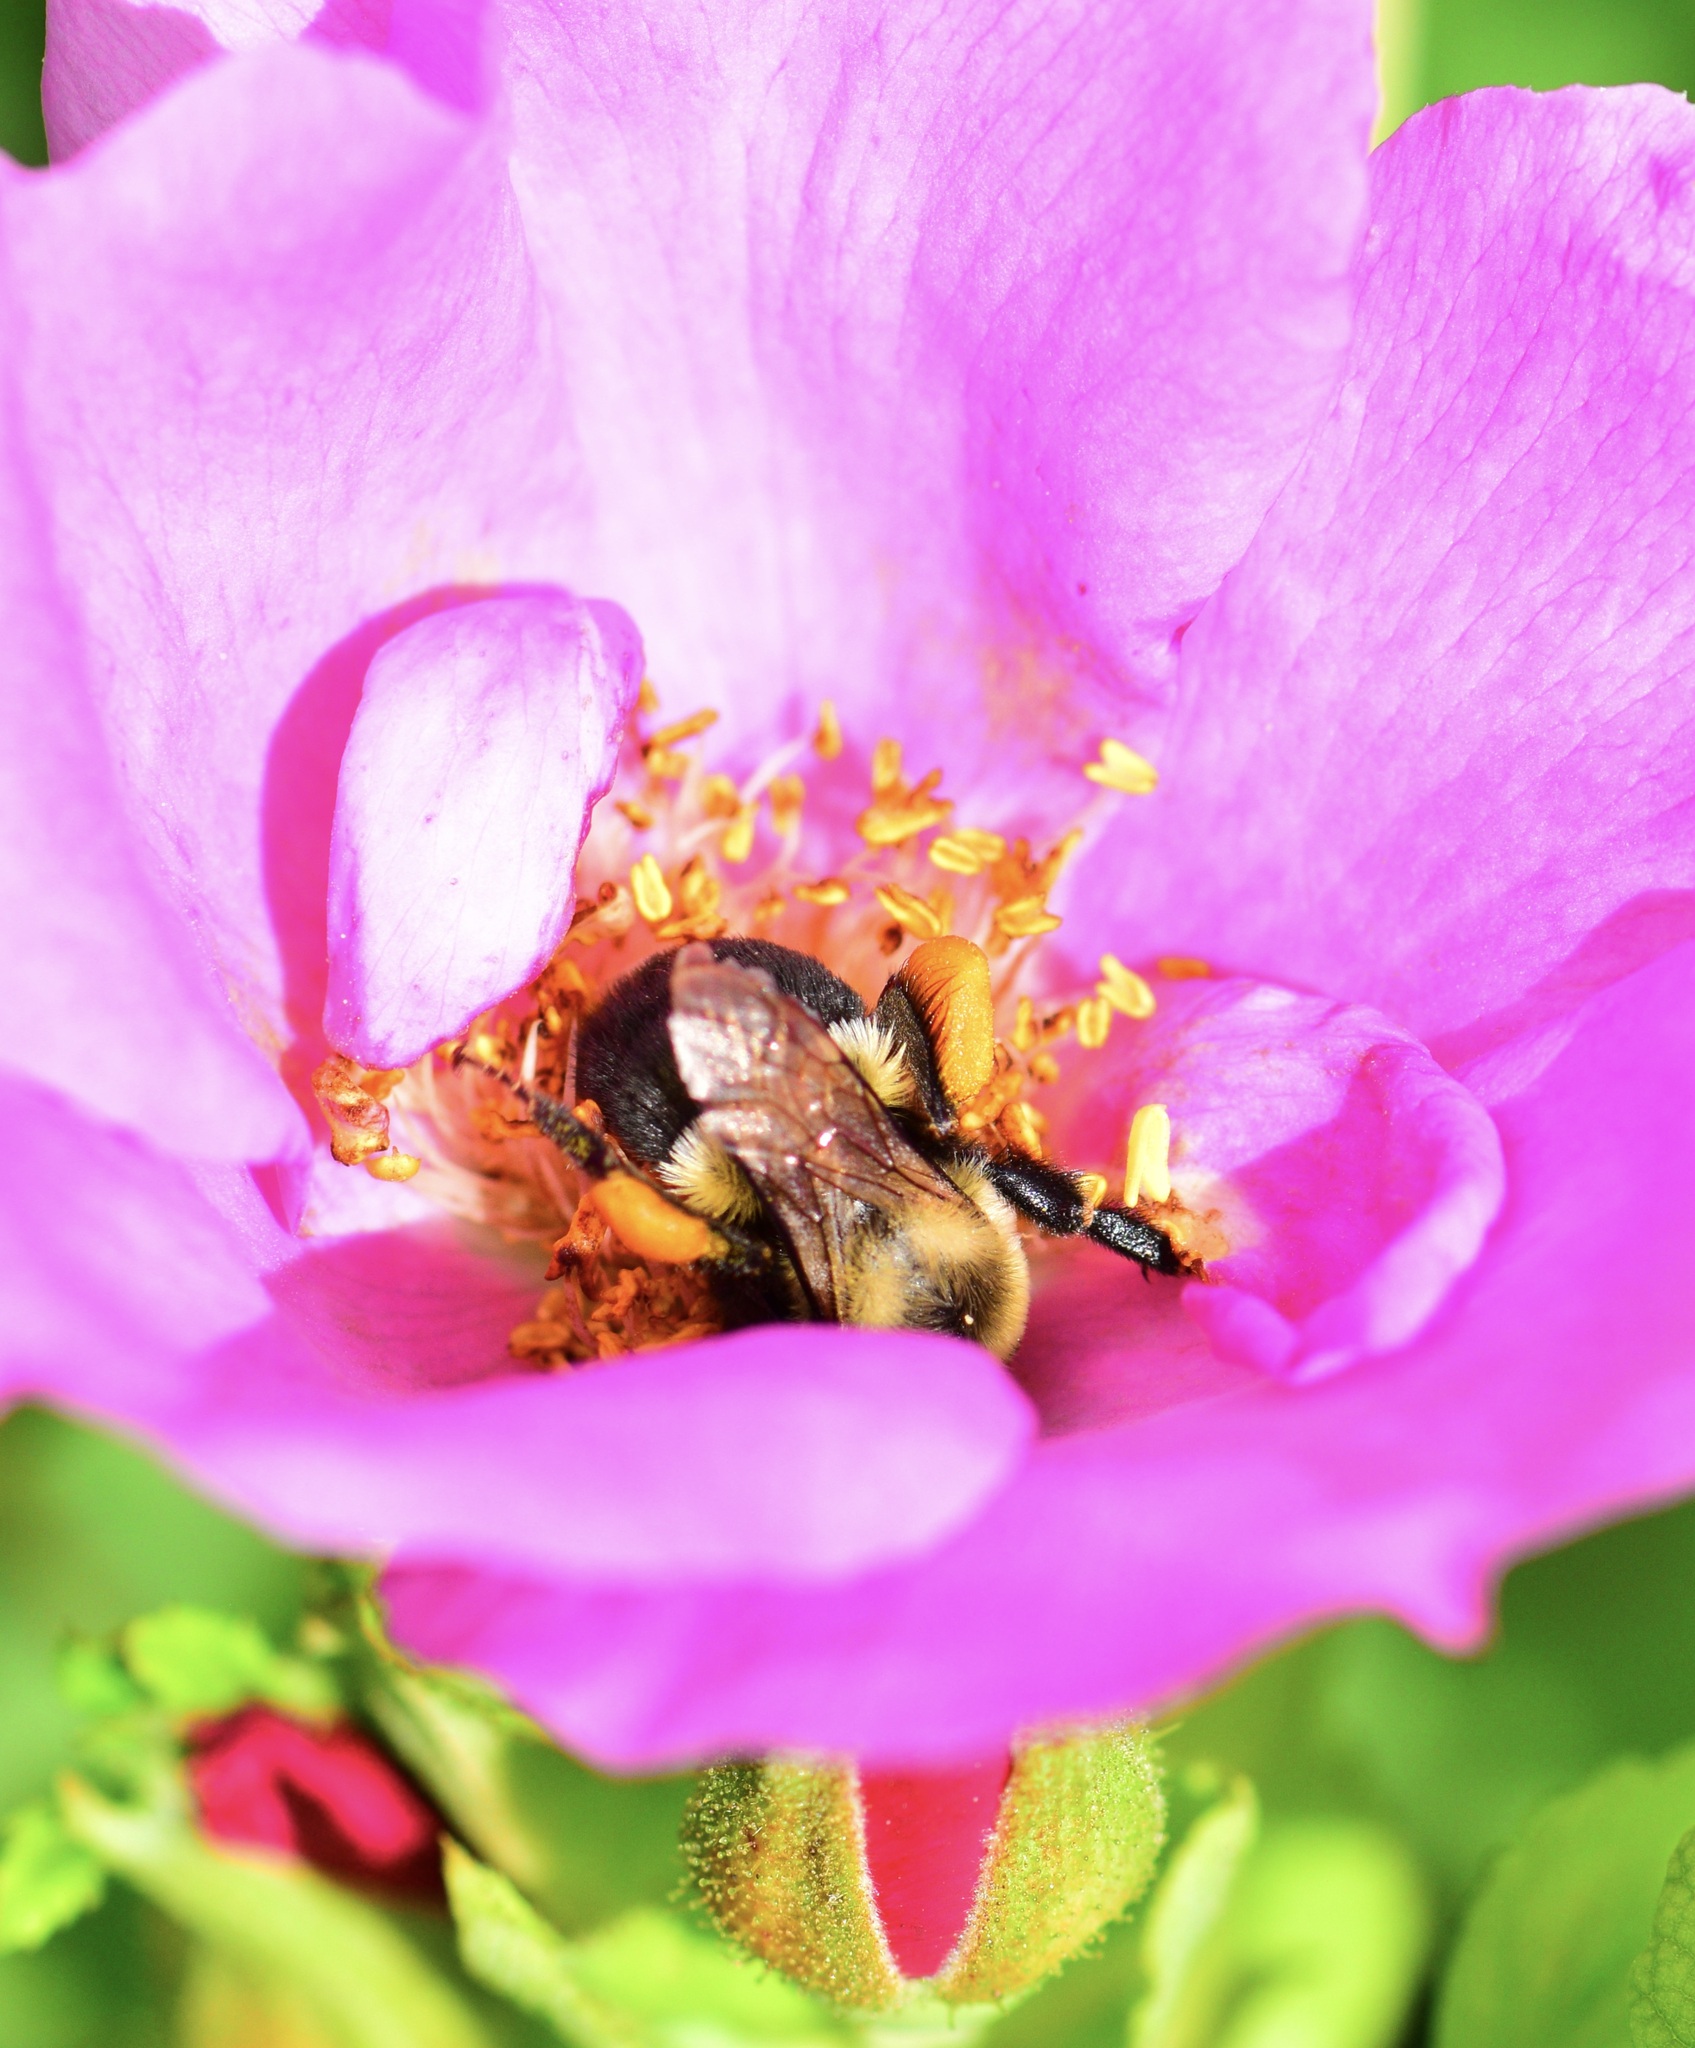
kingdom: Animalia
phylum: Arthropoda
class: Insecta
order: Hymenoptera
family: Apidae
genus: Bombus
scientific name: Bombus impatiens
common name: Common eastern bumble bee
